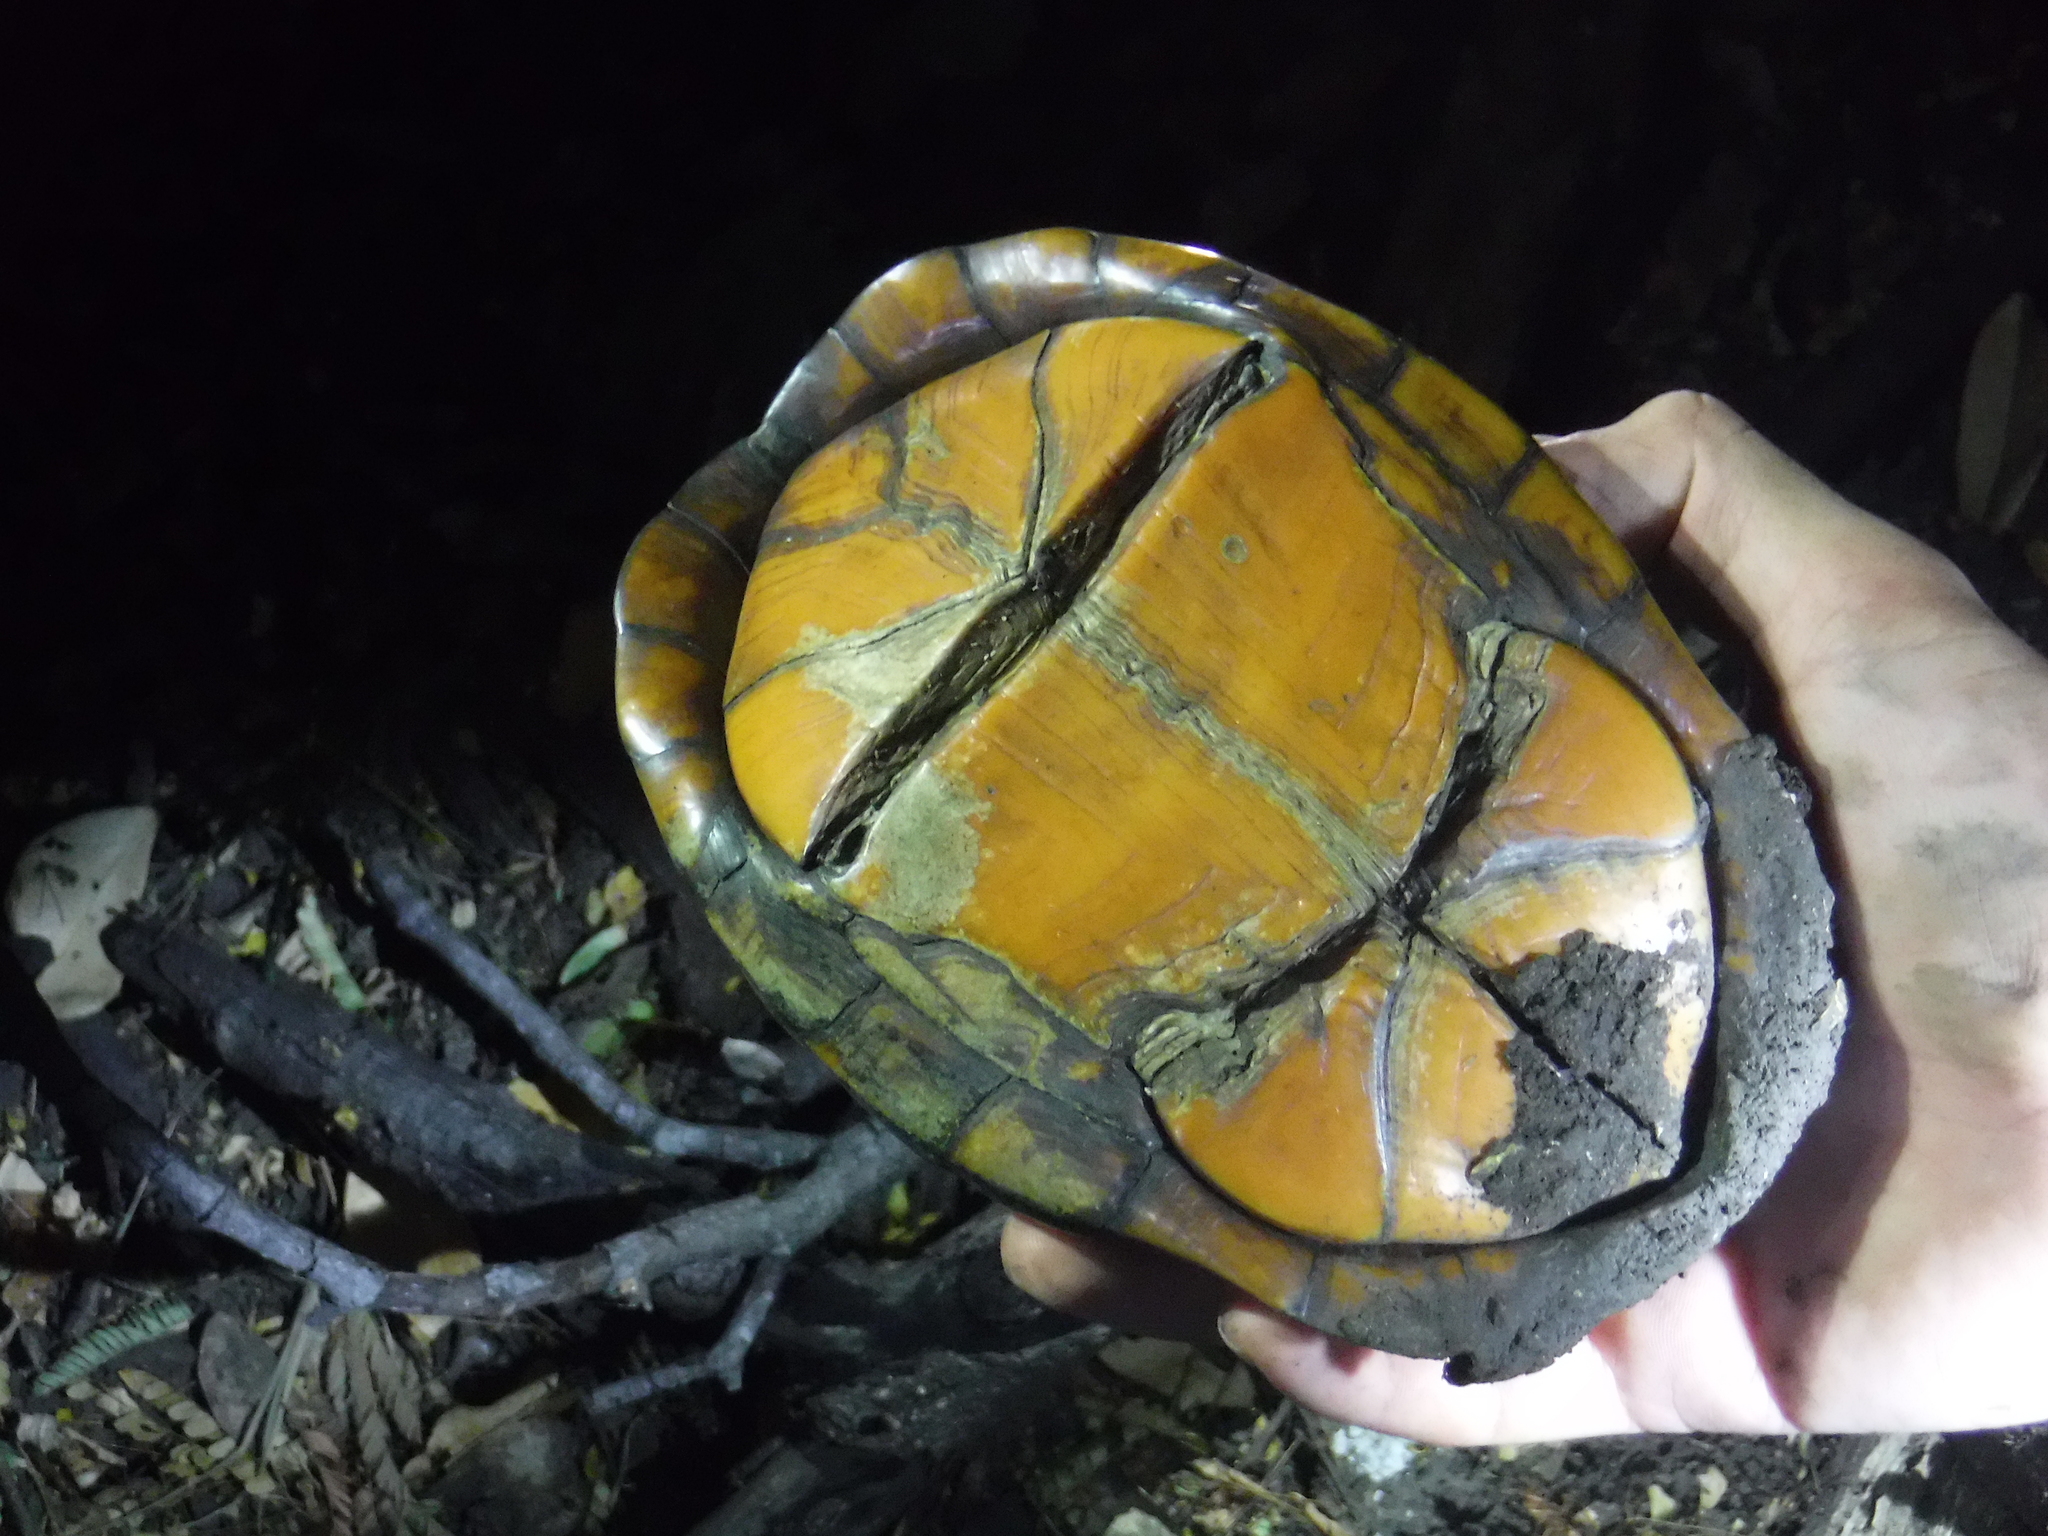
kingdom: Animalia
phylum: Chordata
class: Testudines
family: Kinosternidae
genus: Kinosternon
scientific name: Kinosternon scorpioides
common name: Scorpion mud turtle
